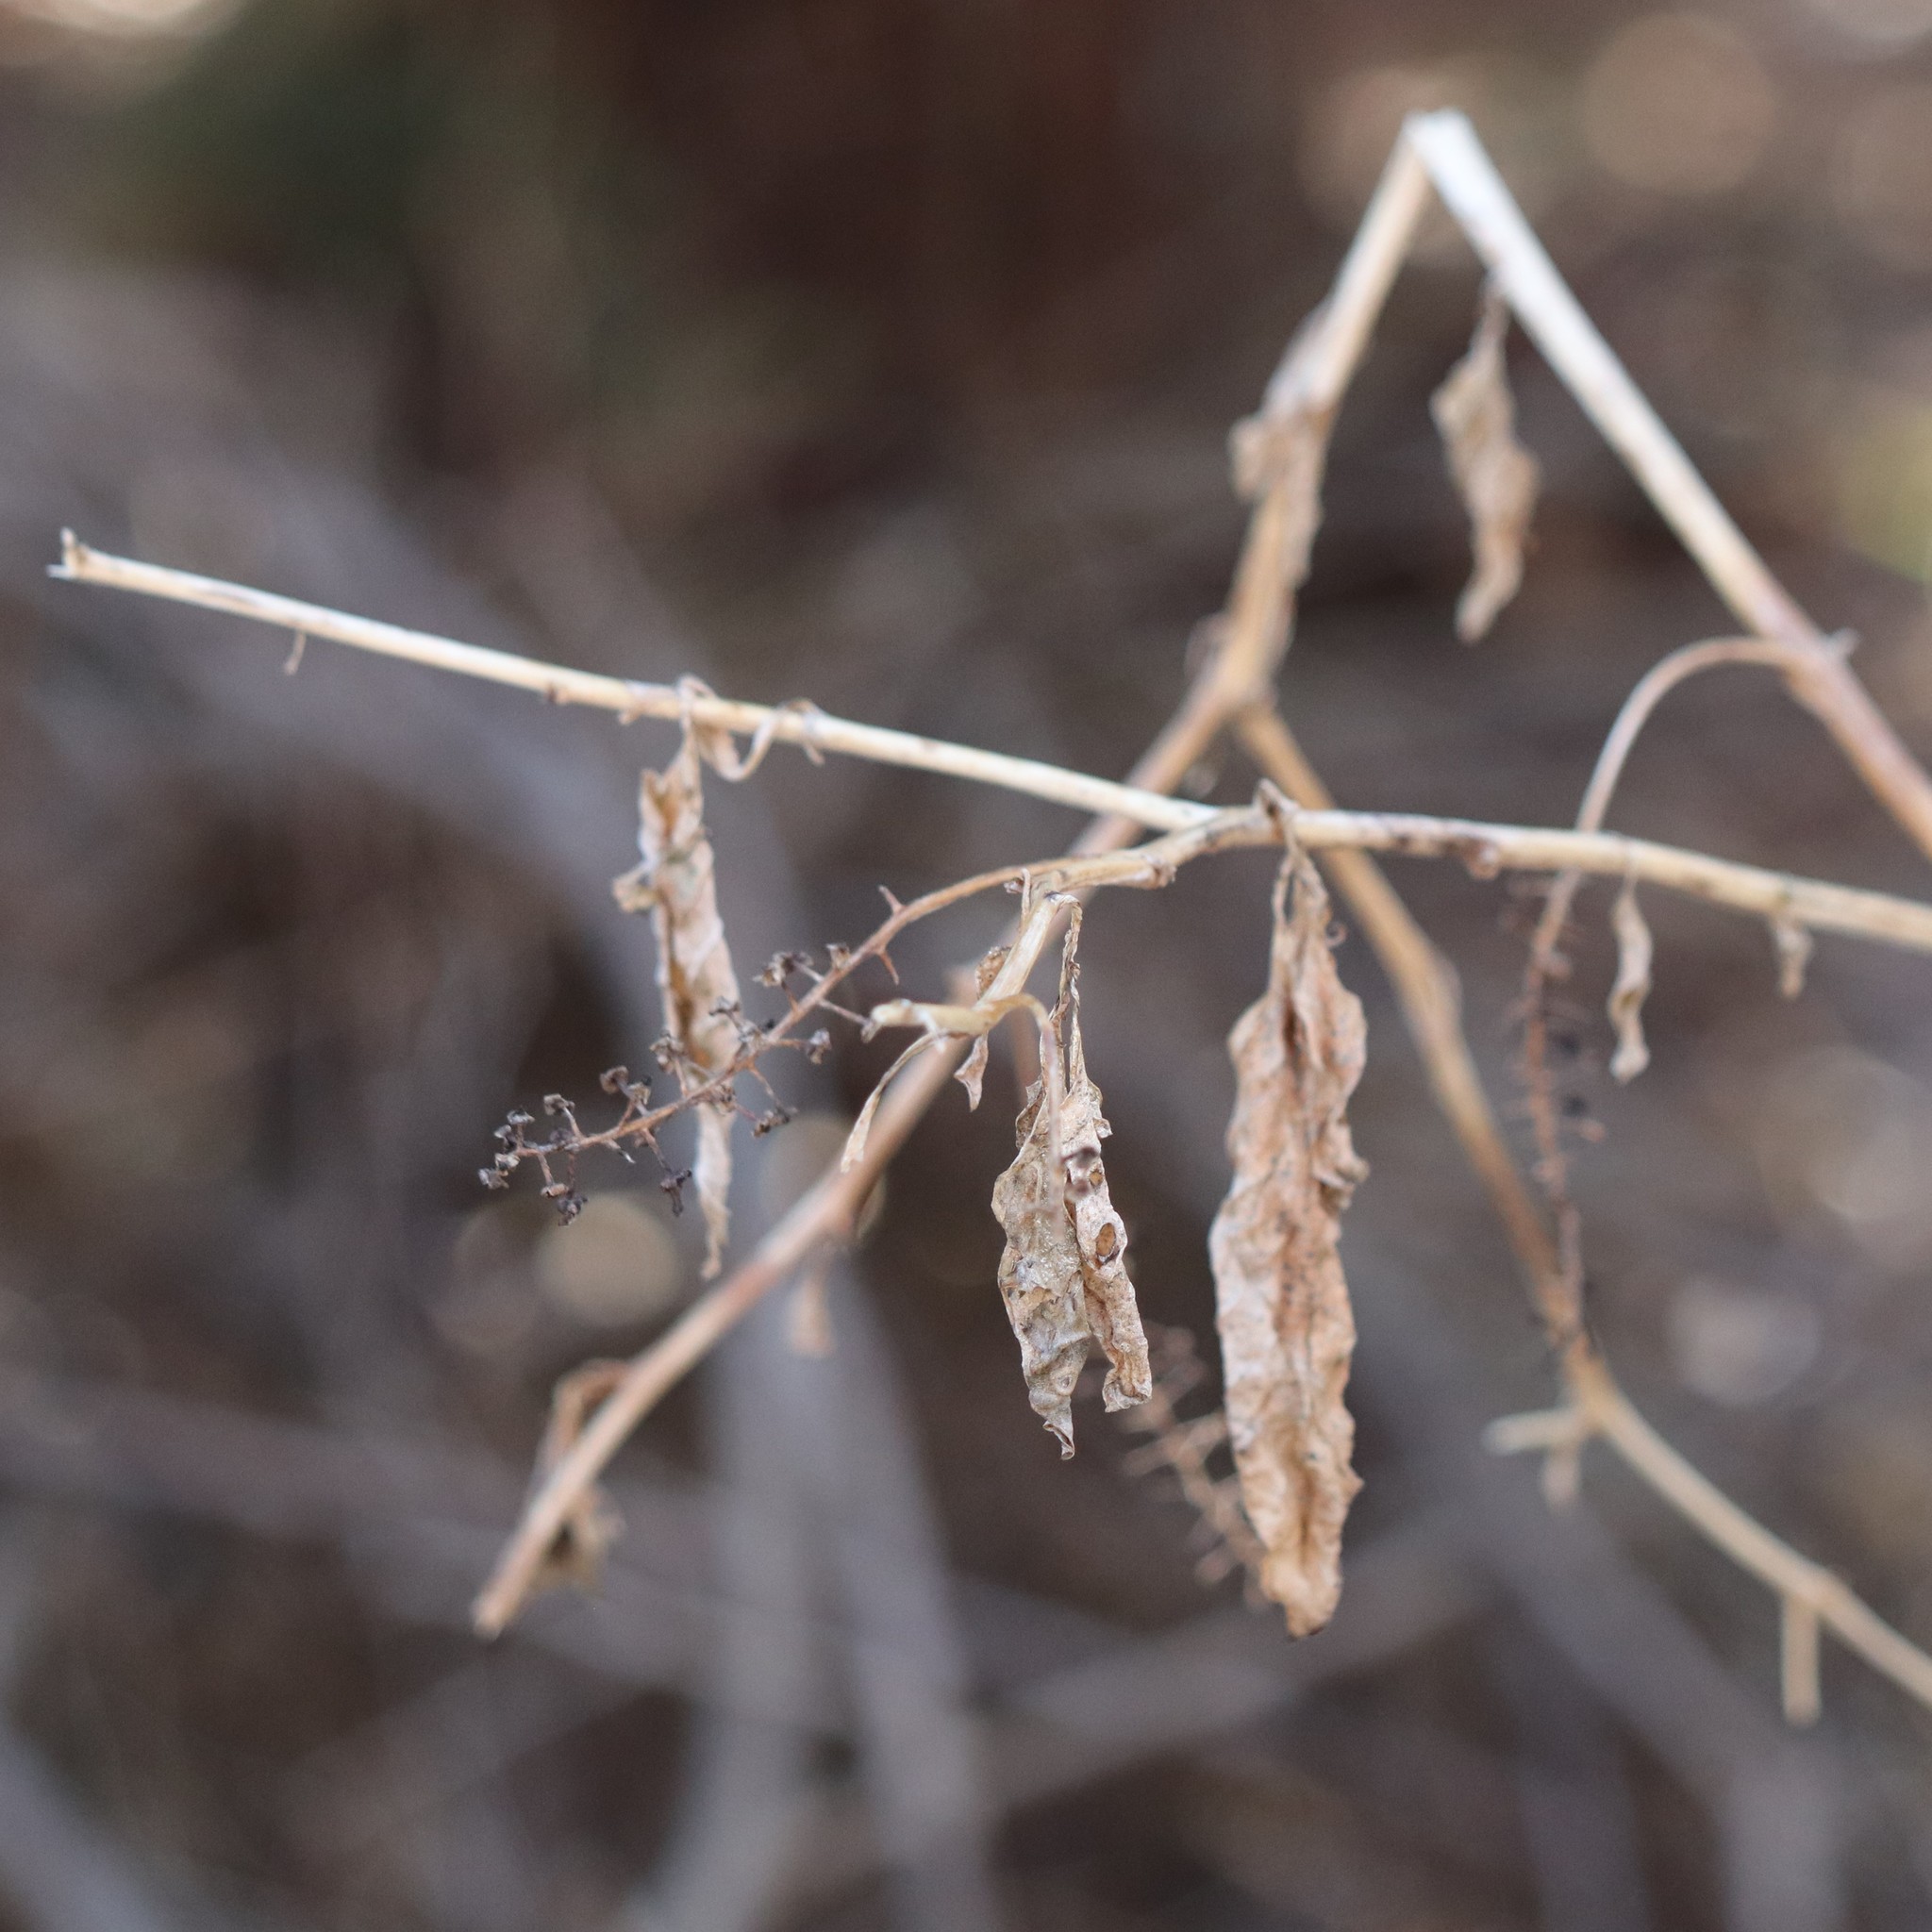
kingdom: Plantae
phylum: Tracheophyta
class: Magnoliopsida
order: Caryophyllales
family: Phytolaccaceae
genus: Phytolacca
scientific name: Phytolacca americana
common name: American pokeweed
